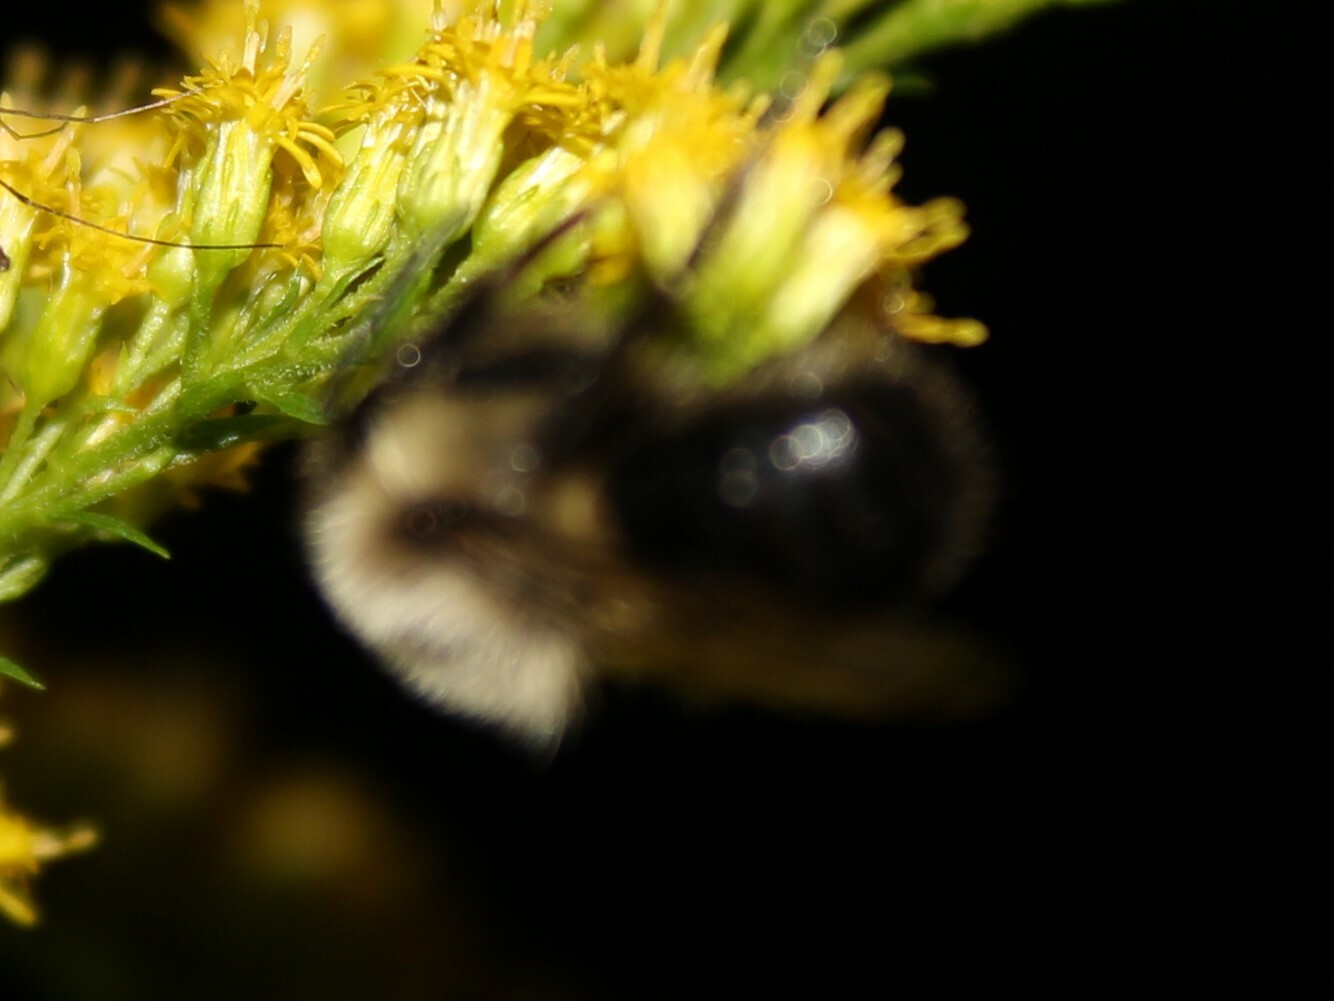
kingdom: Animalia
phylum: Arthropoda
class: Insecta
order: Hymenoptera
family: Apidae
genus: Bombus
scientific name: Bombus impatiens
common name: Common eastern bumble bee
